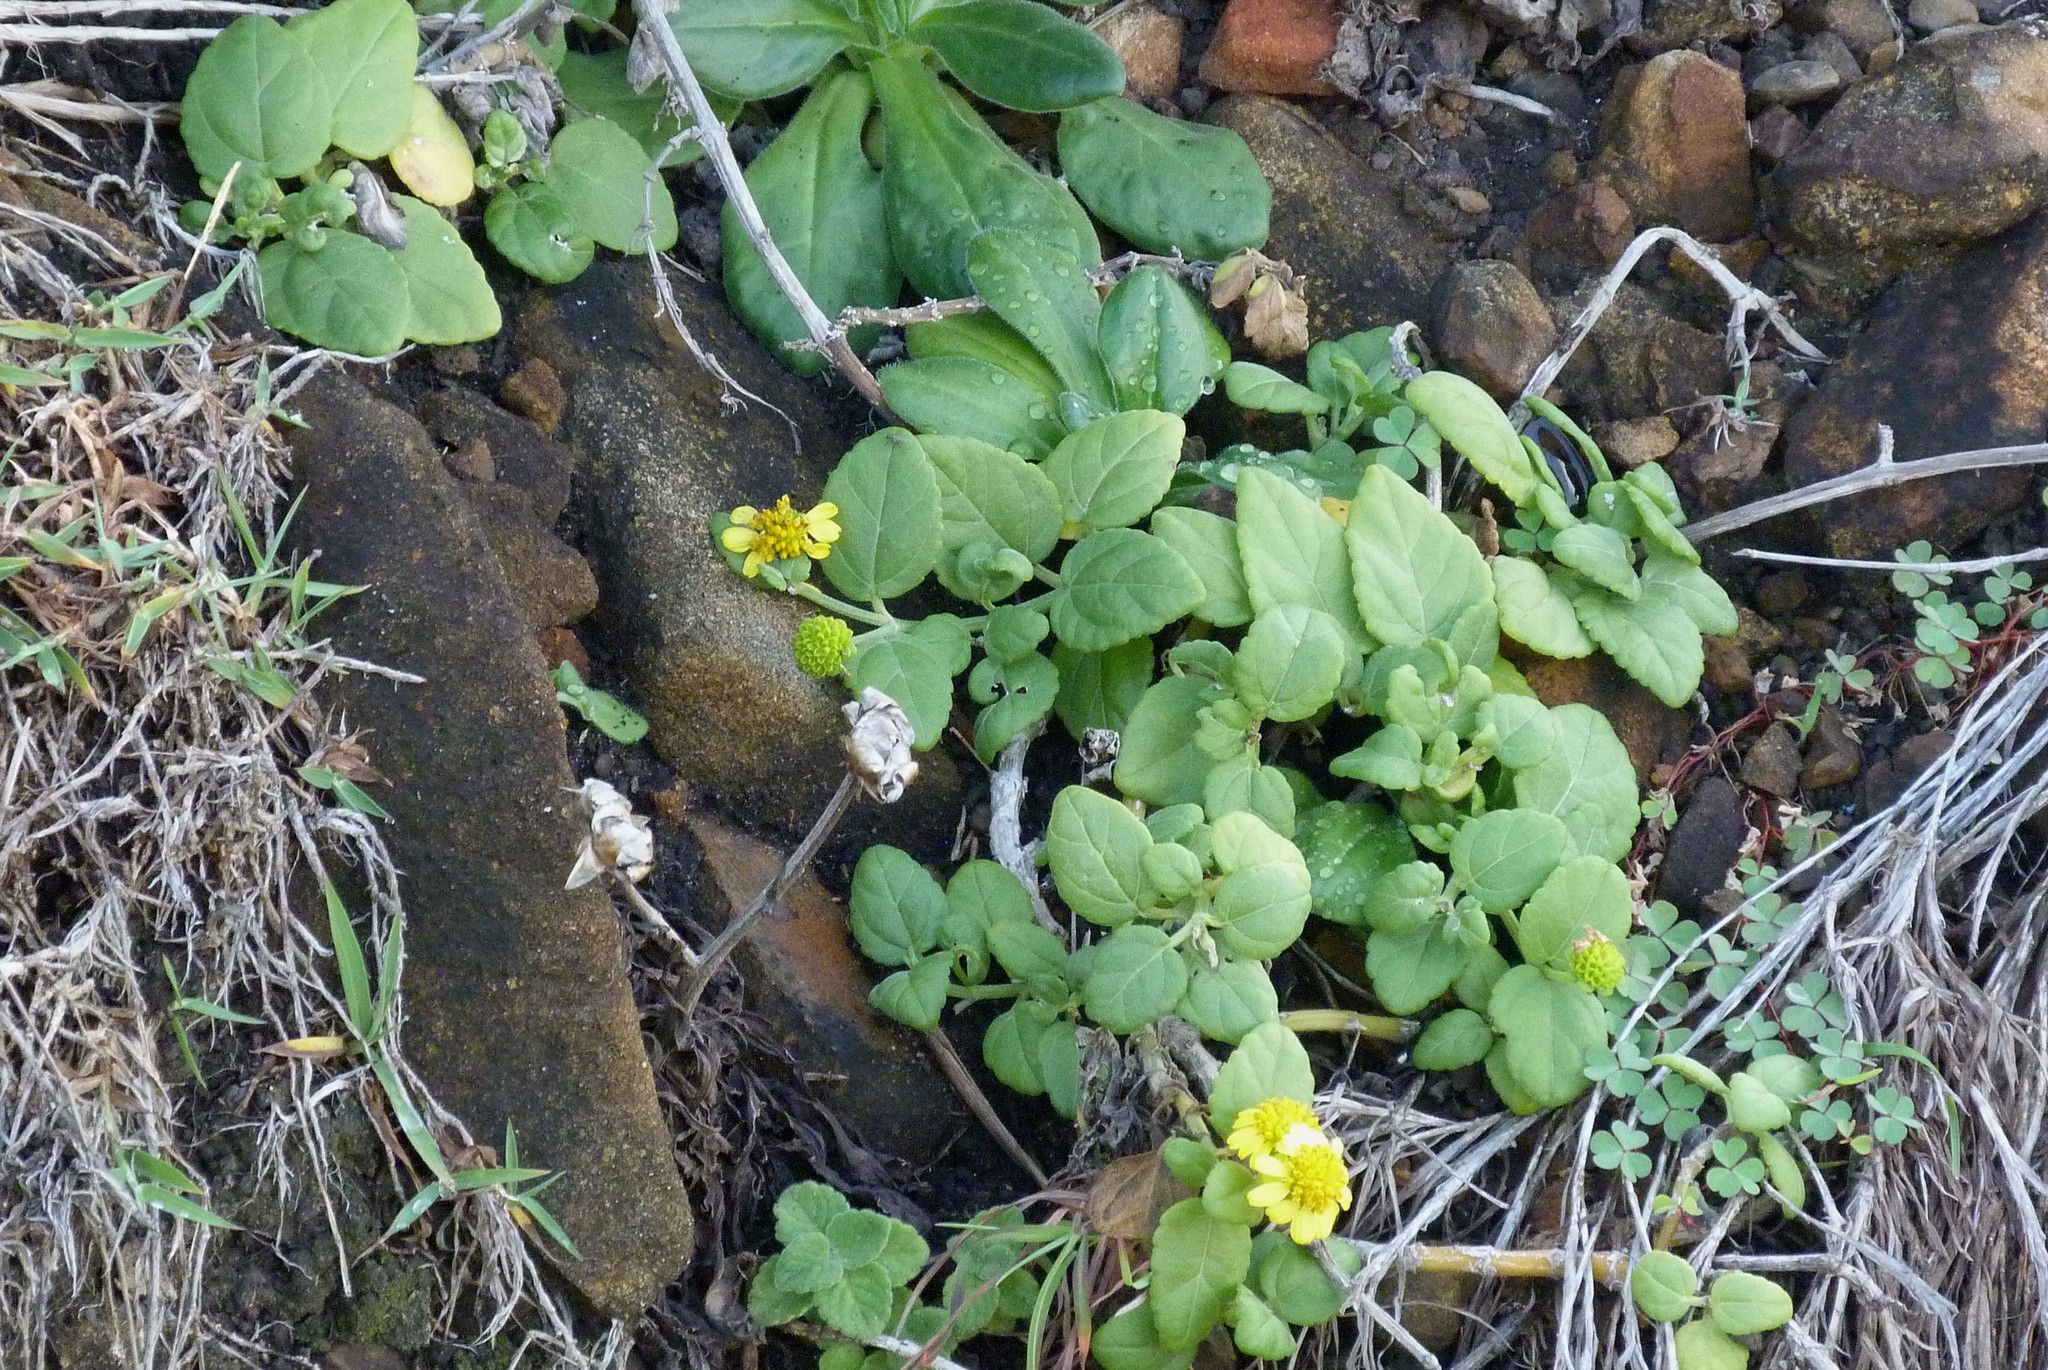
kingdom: Plantae
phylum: Tracheophyta
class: Magnoliopsida
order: Asterales
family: Asteraceae
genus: Wollastonia
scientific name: Wollastonia uniflora
